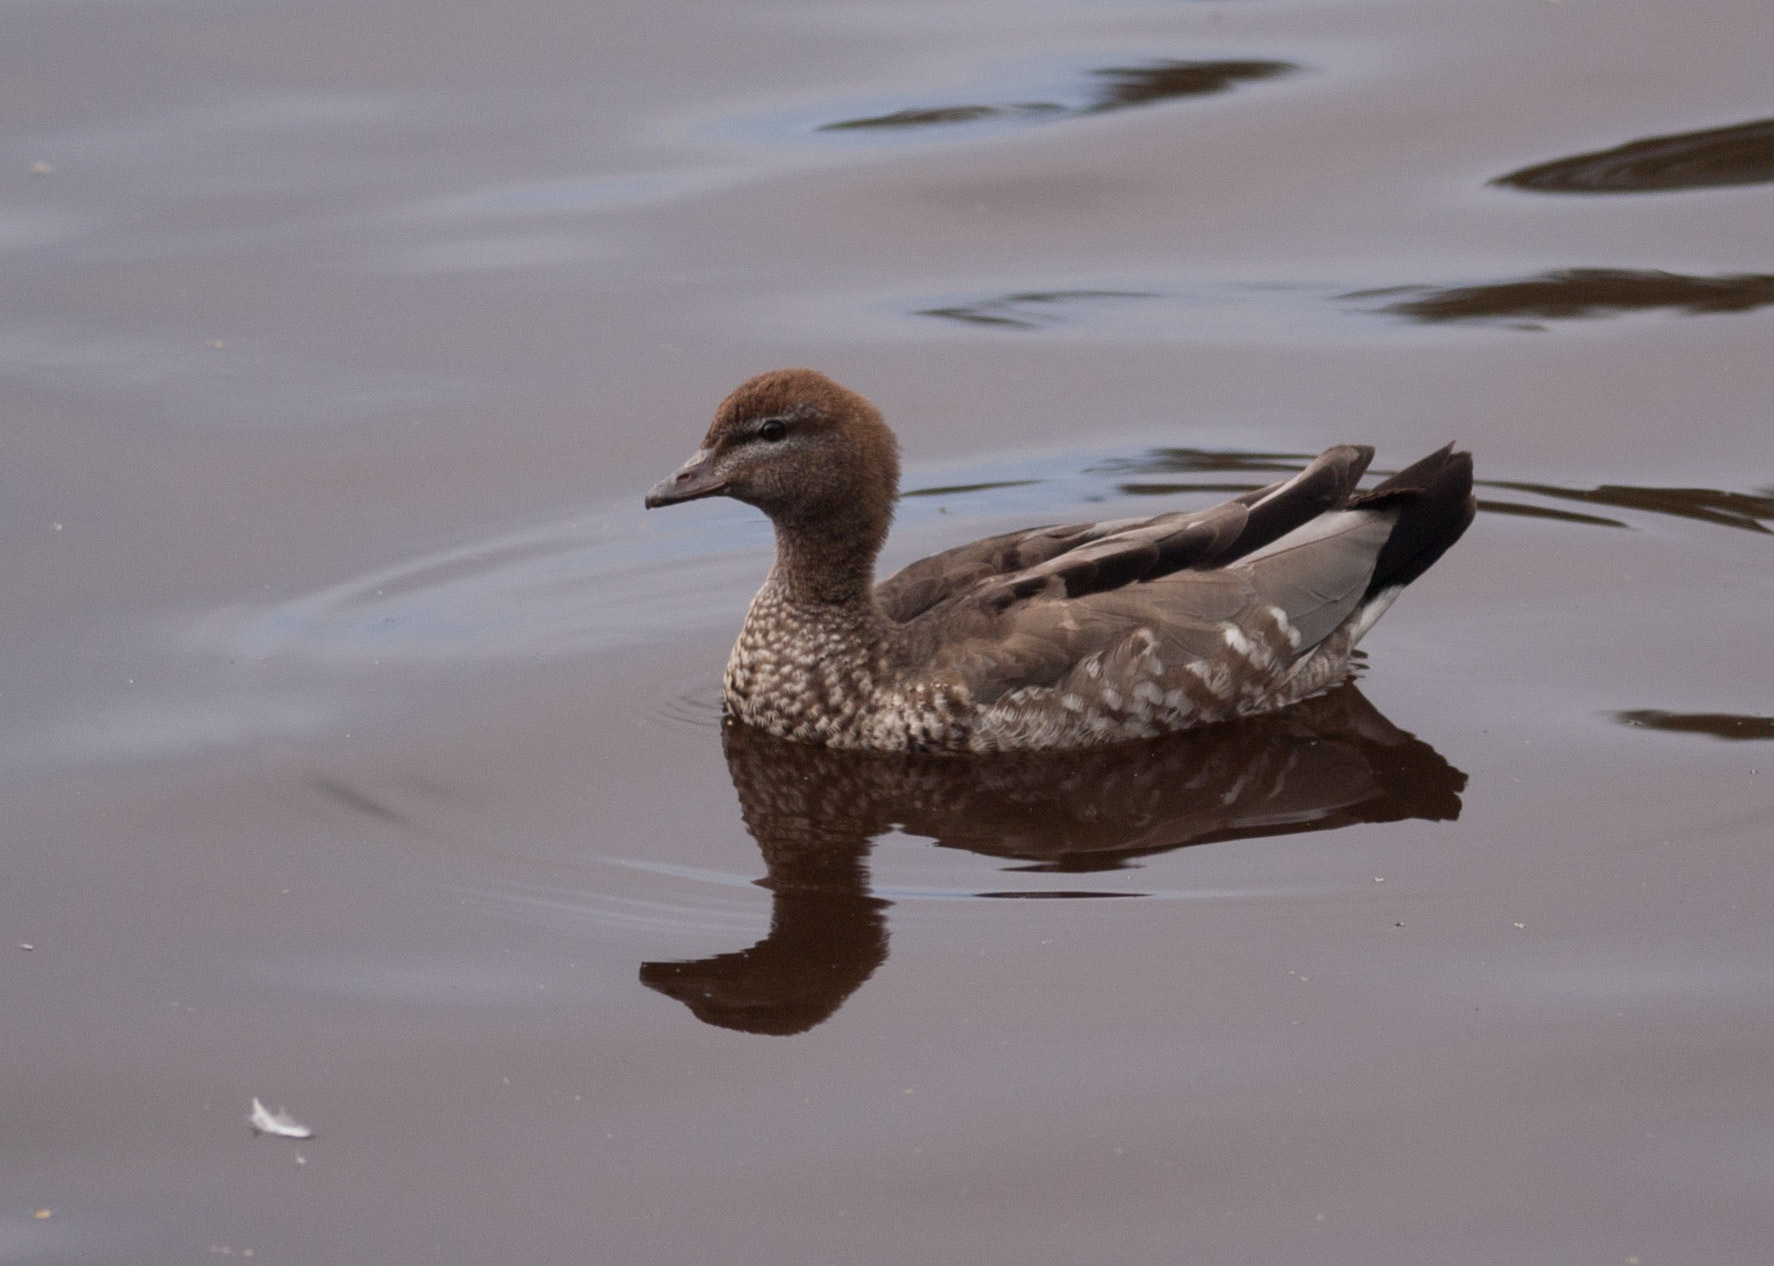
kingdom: Animalia
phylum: Chordata
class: Aves
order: Anseriformes
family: Anatidae
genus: Chenonetta
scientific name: Chenonetta jubata
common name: Maned duck
